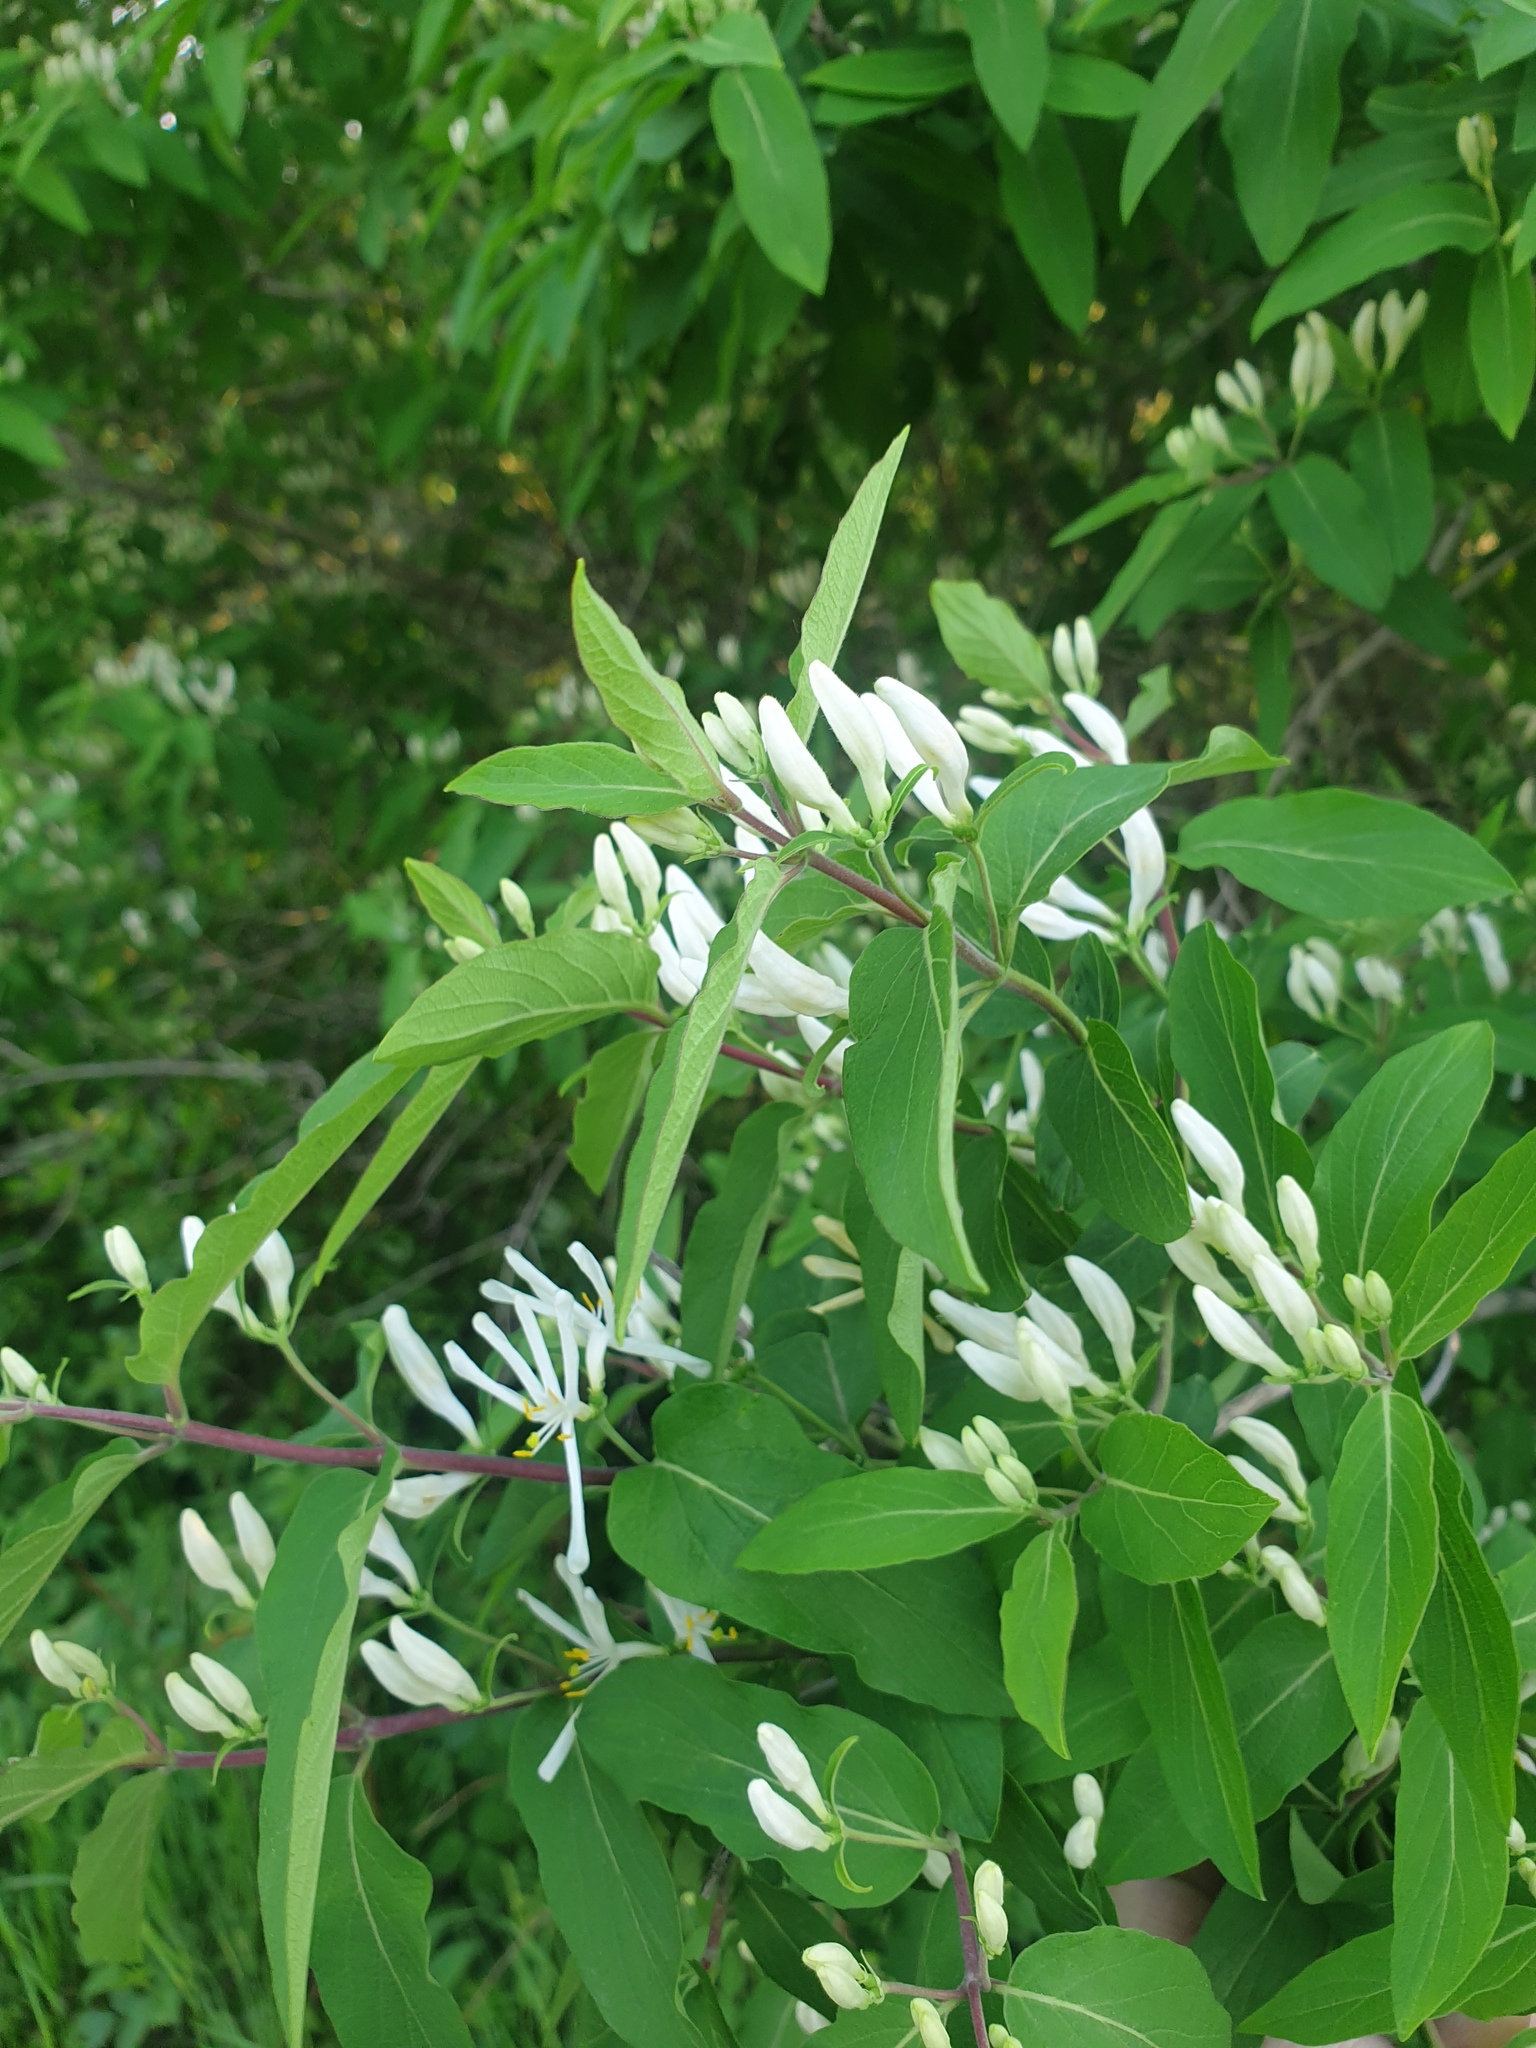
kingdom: Plantae
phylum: Tracheophyta
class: Magnoliopsida
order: Dipsacales
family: Caprifoliaceae
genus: Lonicera
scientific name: Lonicera bella
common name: Bell's honeysuckle
